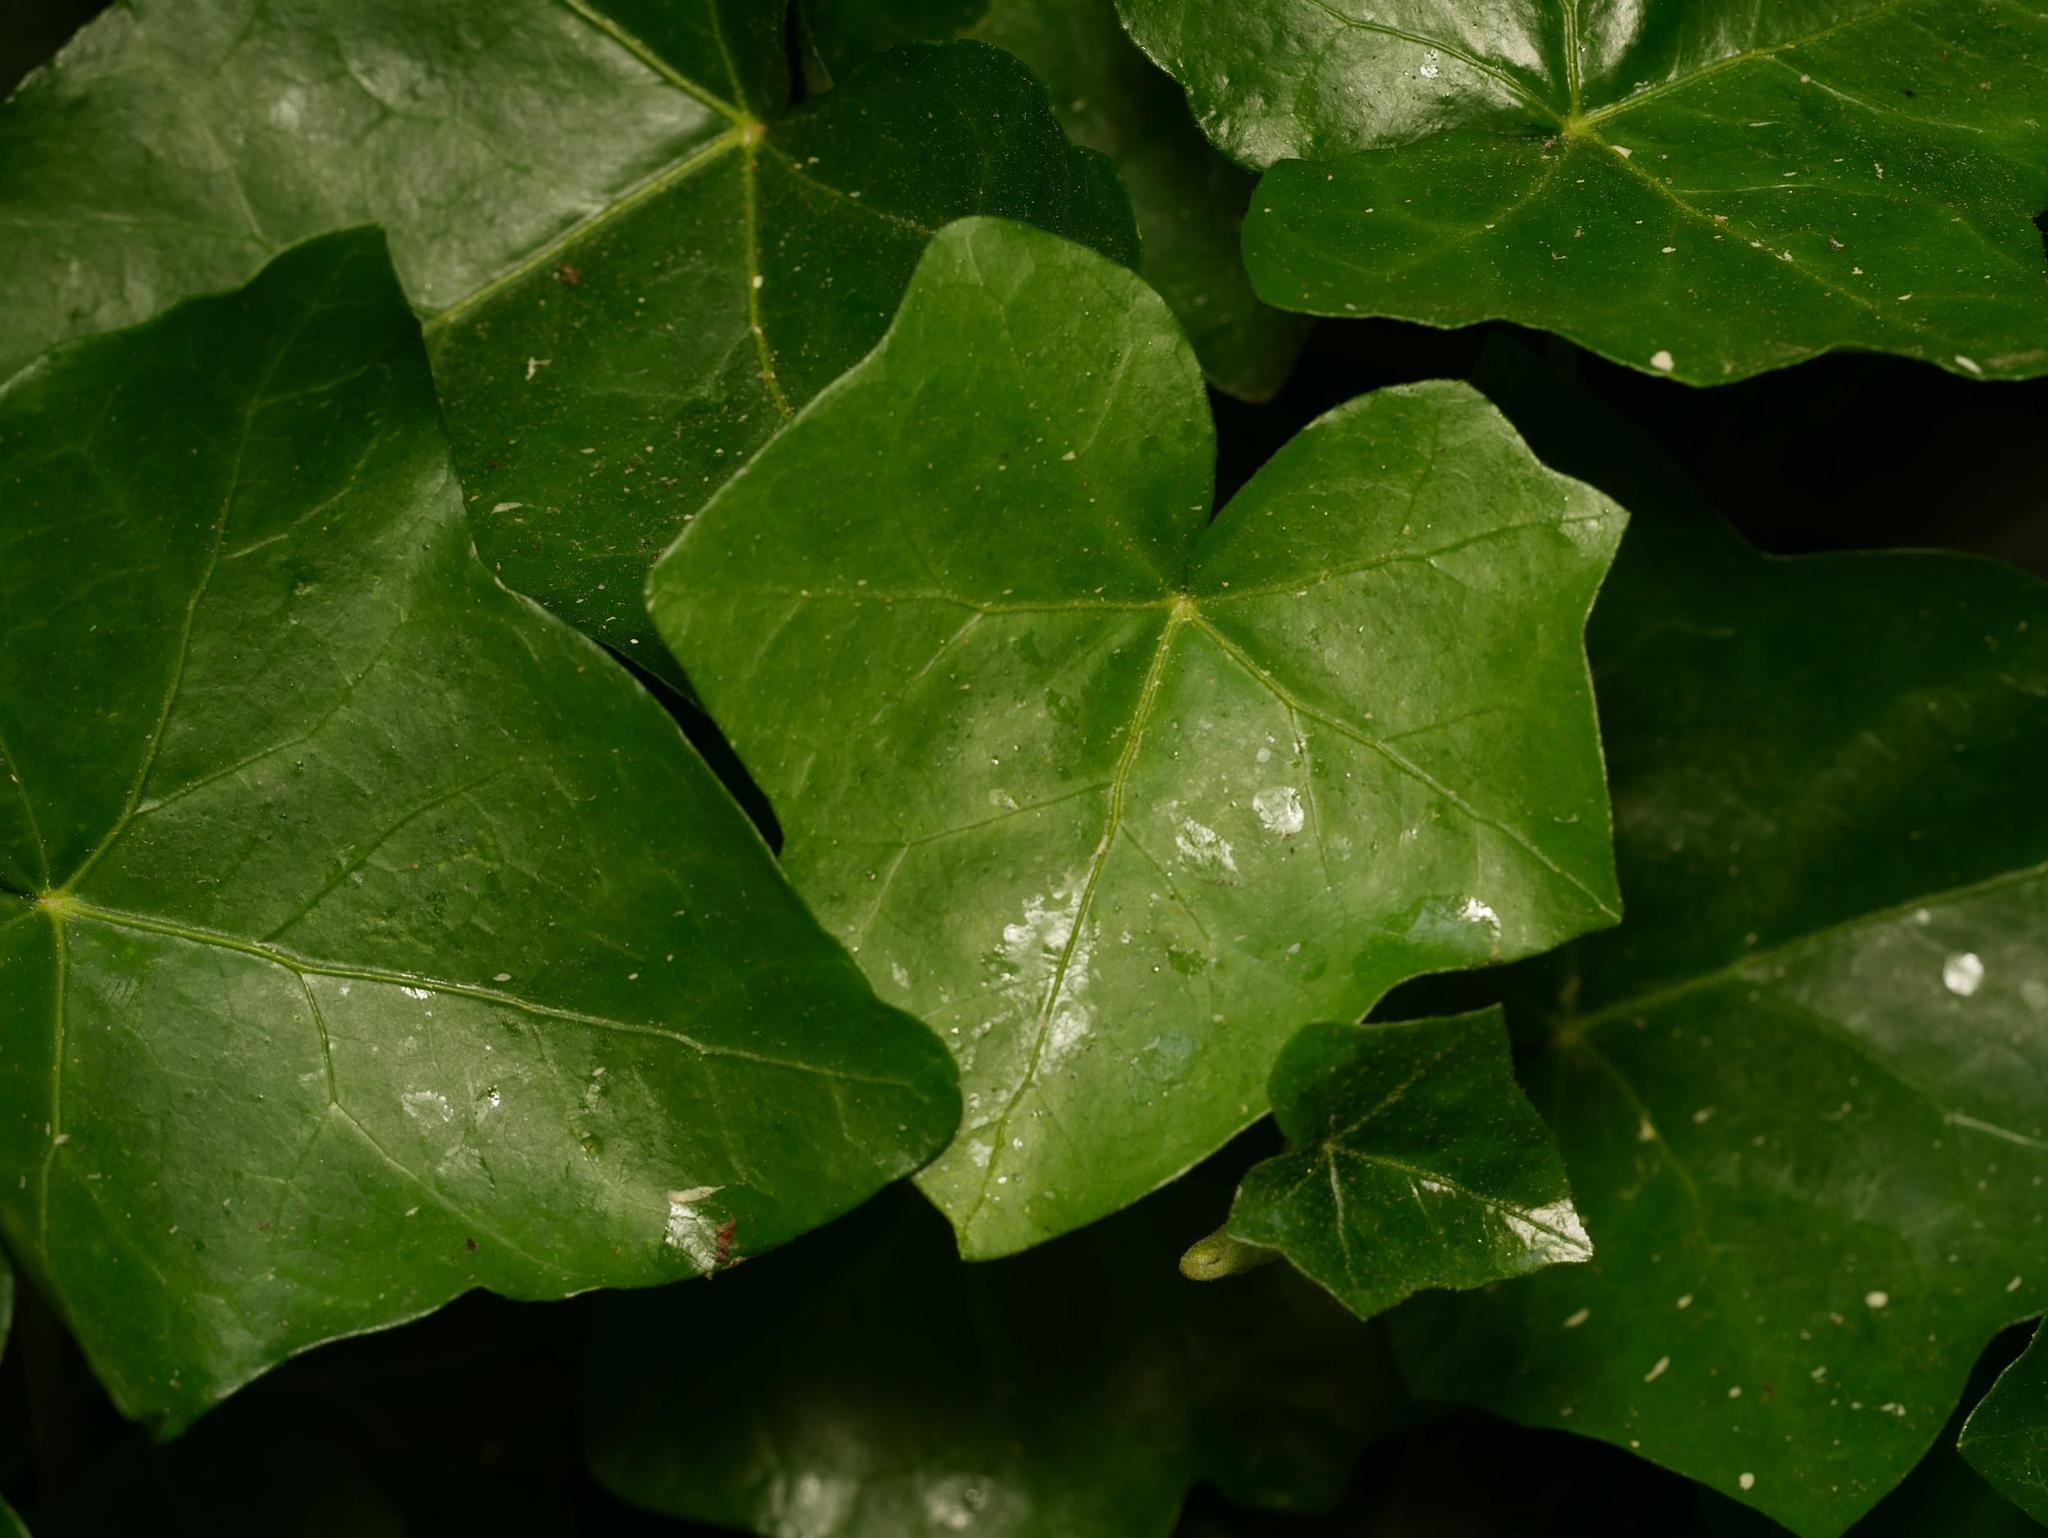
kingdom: Plantae
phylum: Tracheophyta
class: Magnoliopsida
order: Apiales
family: Araliaceae
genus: Hedera
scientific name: Hedera helix
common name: Ivy
